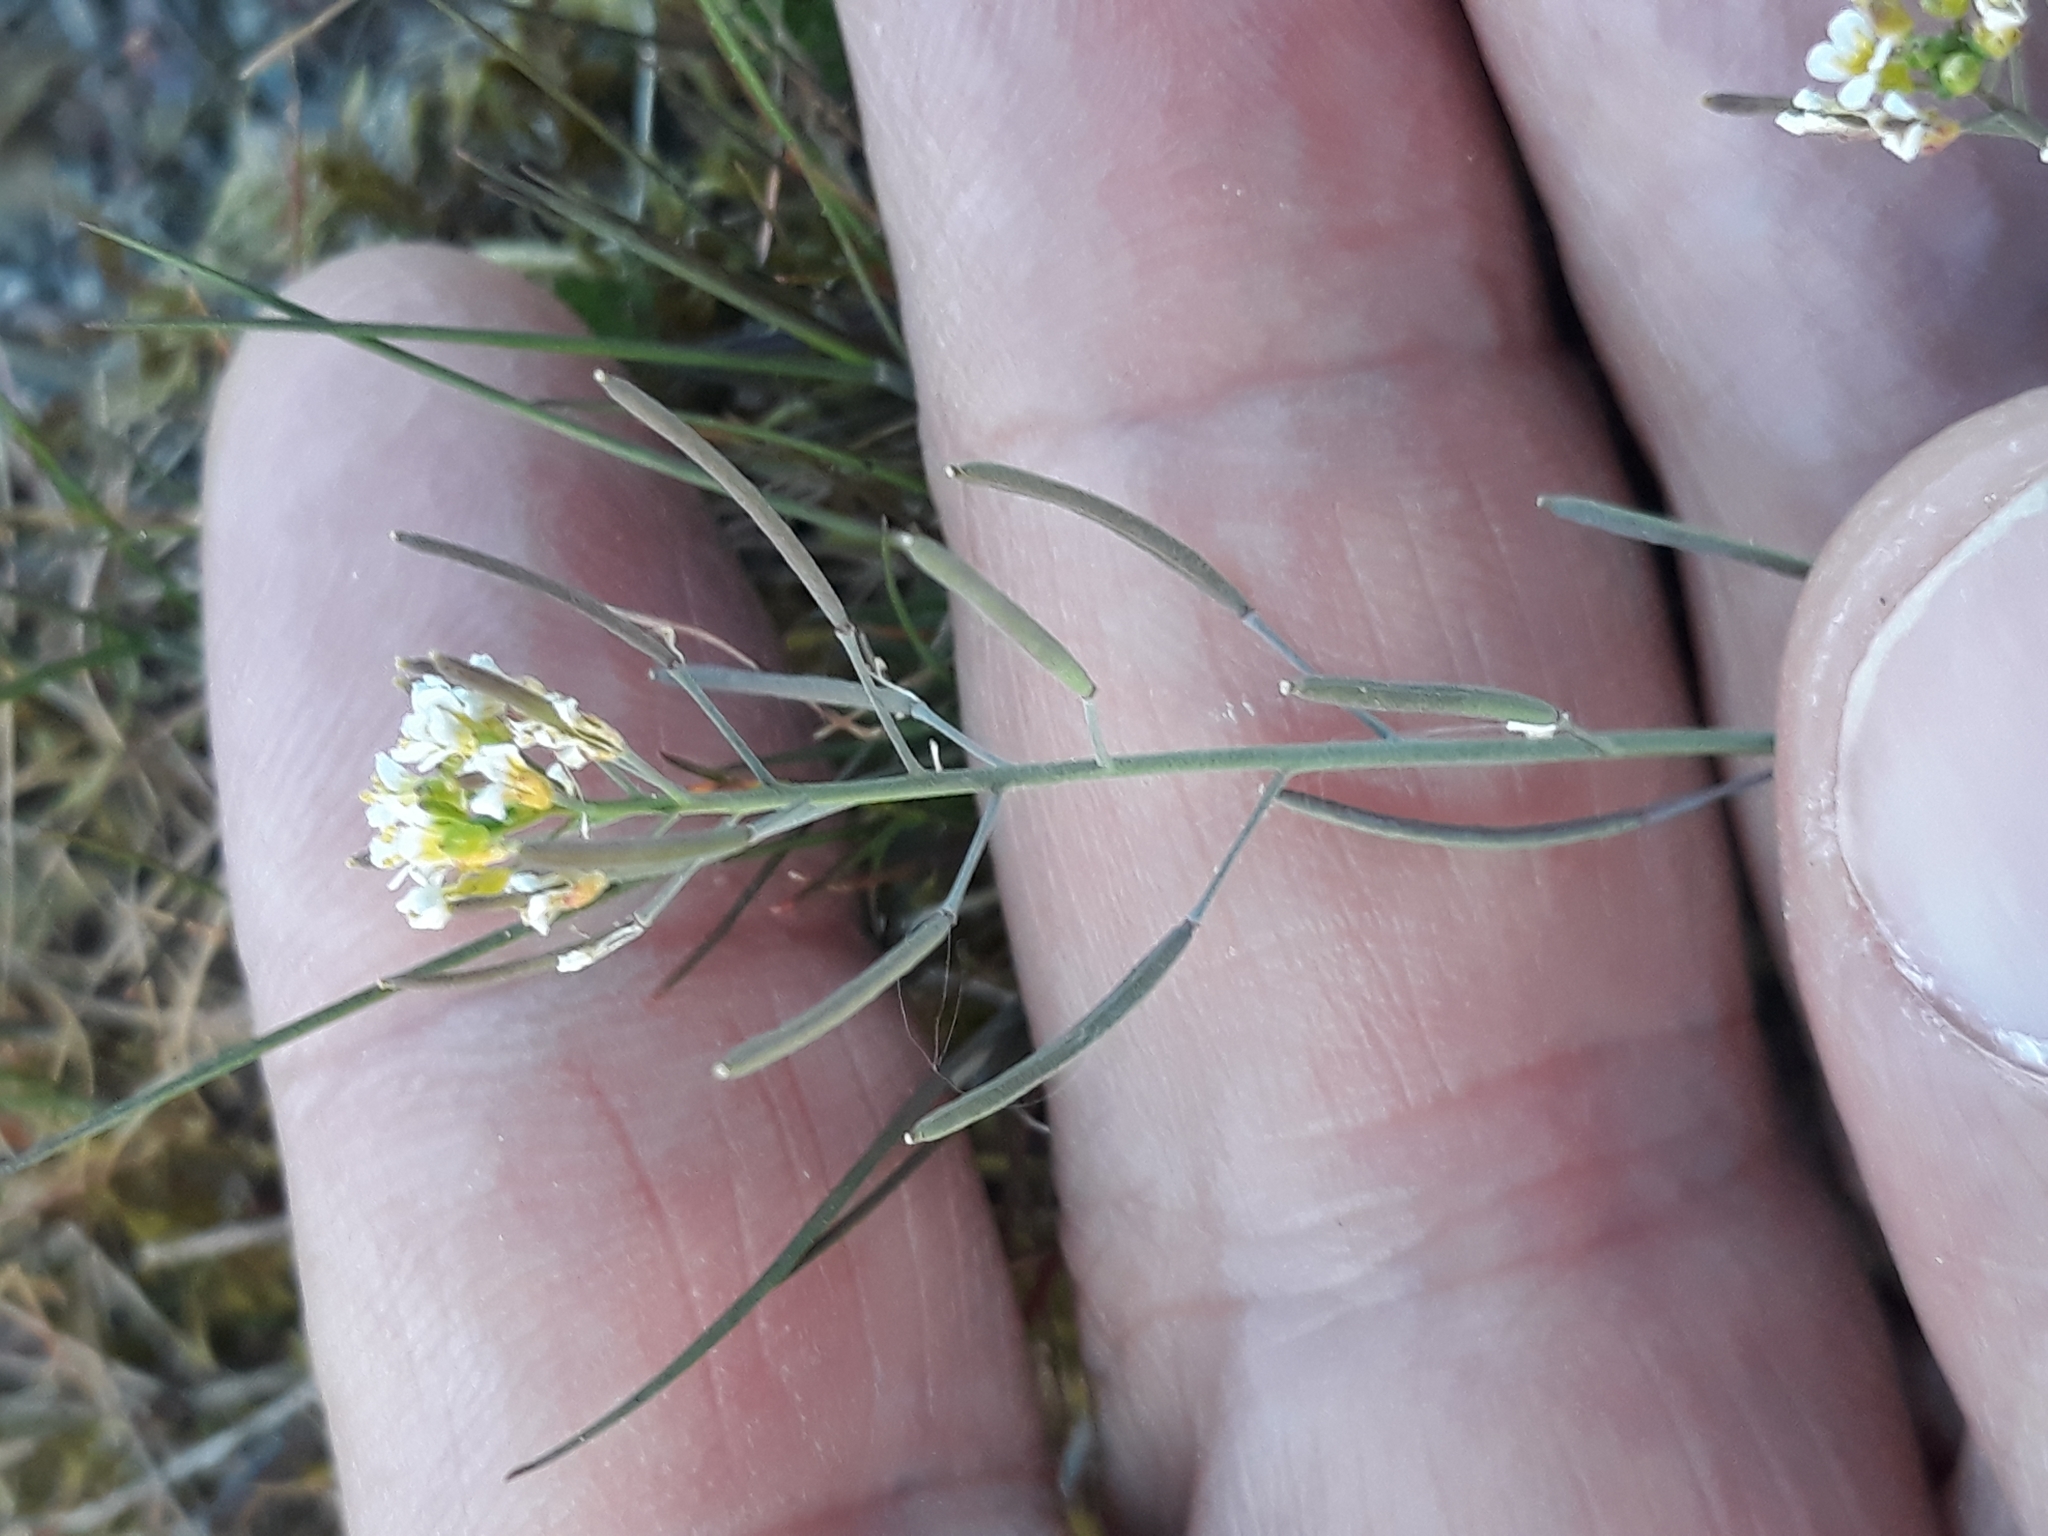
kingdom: Plantae
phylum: Tracheophyta
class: Magnoliopsida
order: Brassicales
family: Brassicaceae
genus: Arabidopsis
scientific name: Arabidopsis thaliana
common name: Thale cress
